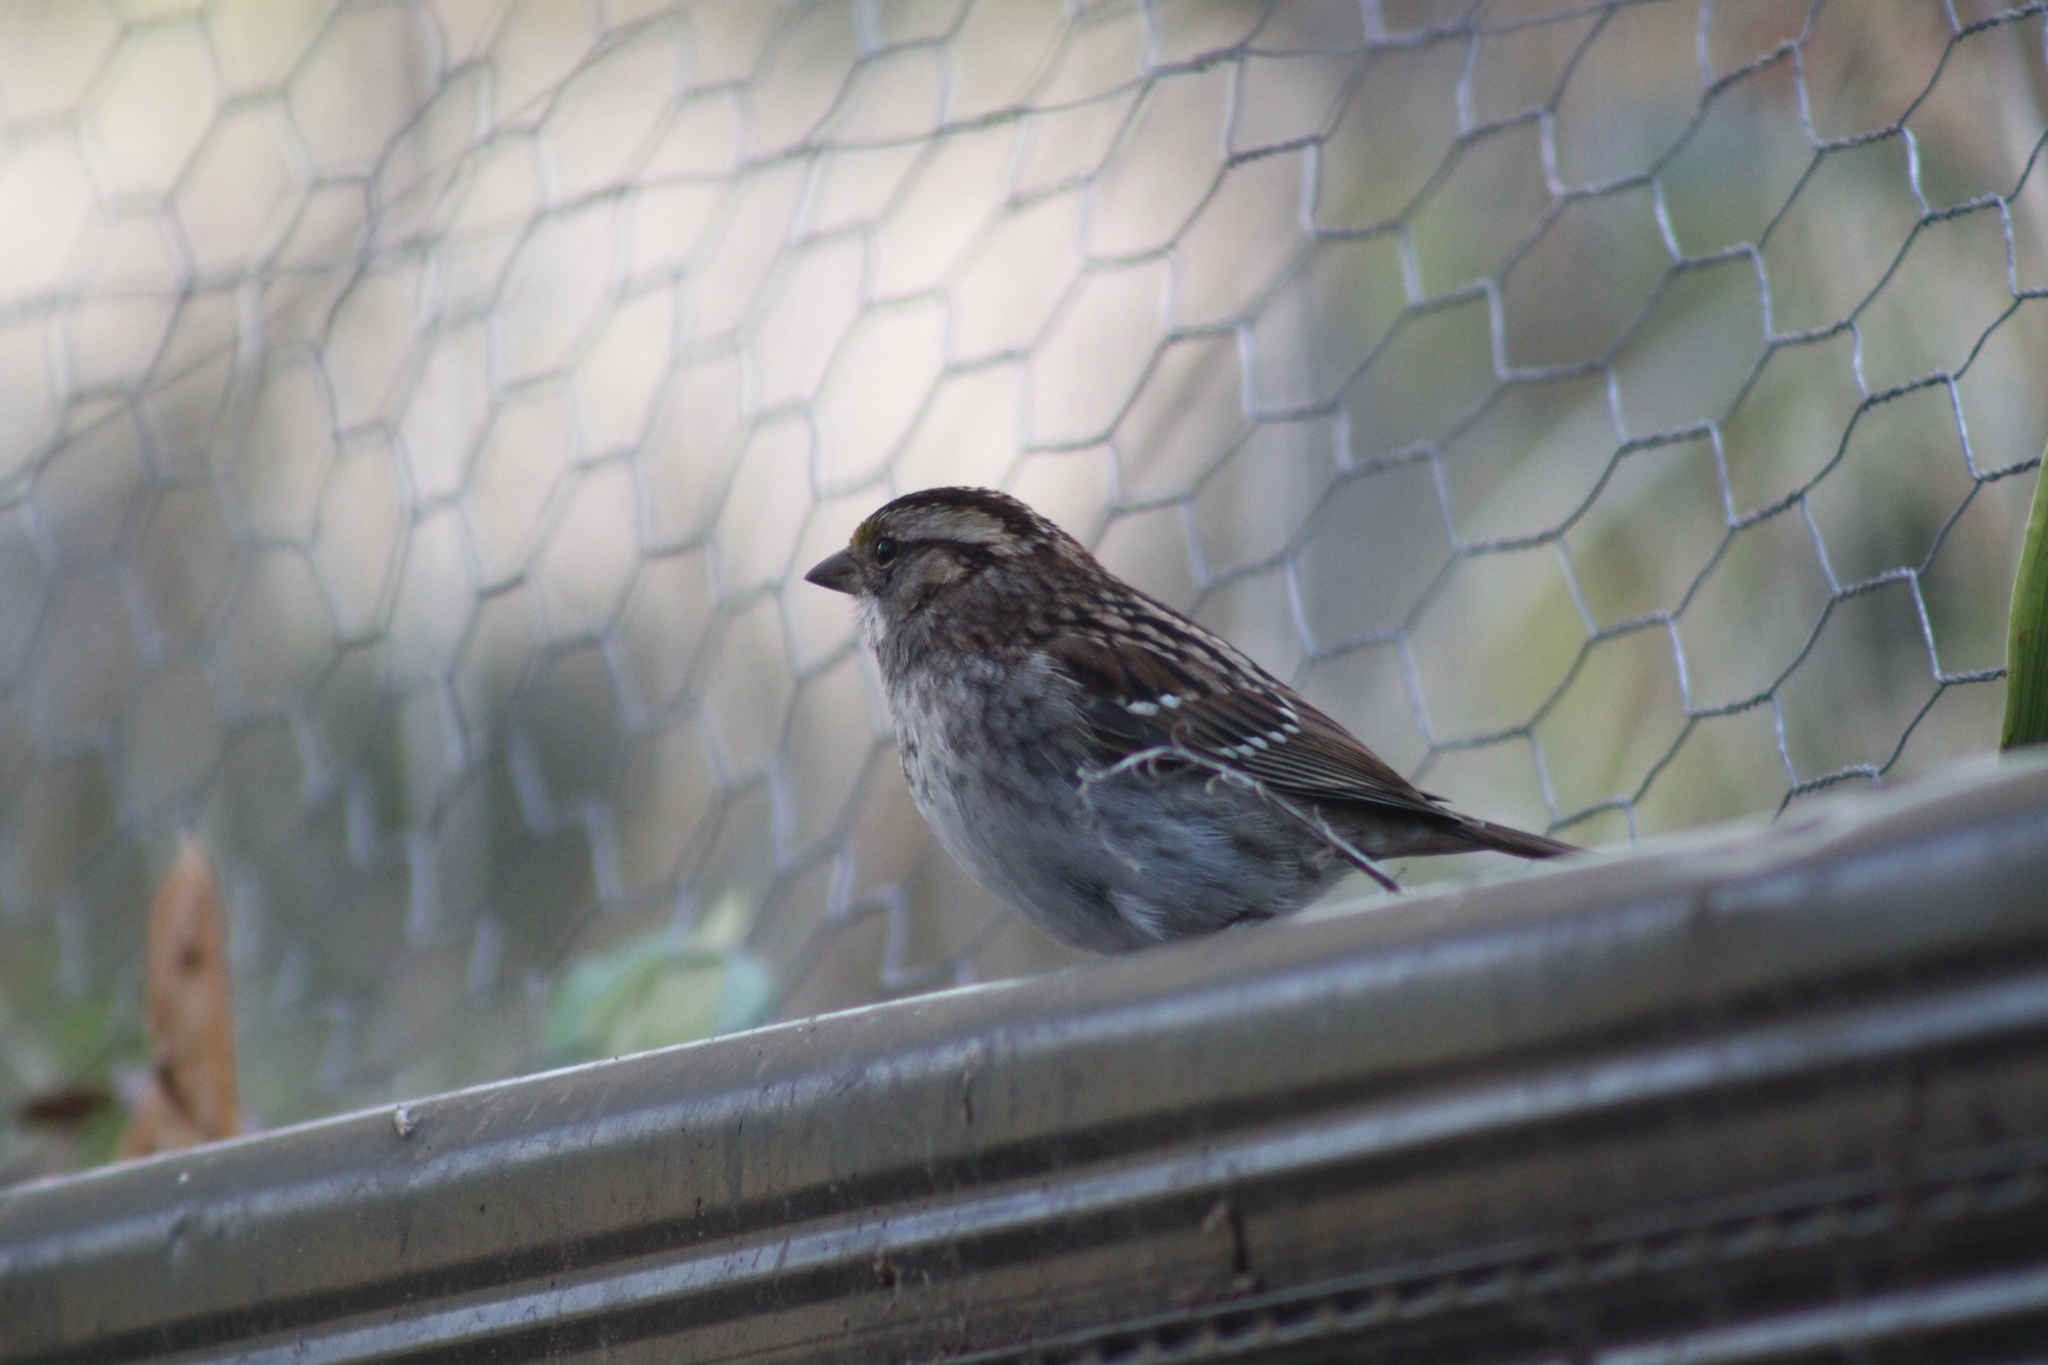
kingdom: Animalia
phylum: Chordata
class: Aves
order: Passeriformes
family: Passerellidae
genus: Zonotrichia
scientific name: Zonotrichia albicollis
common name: White-throated sparrow
